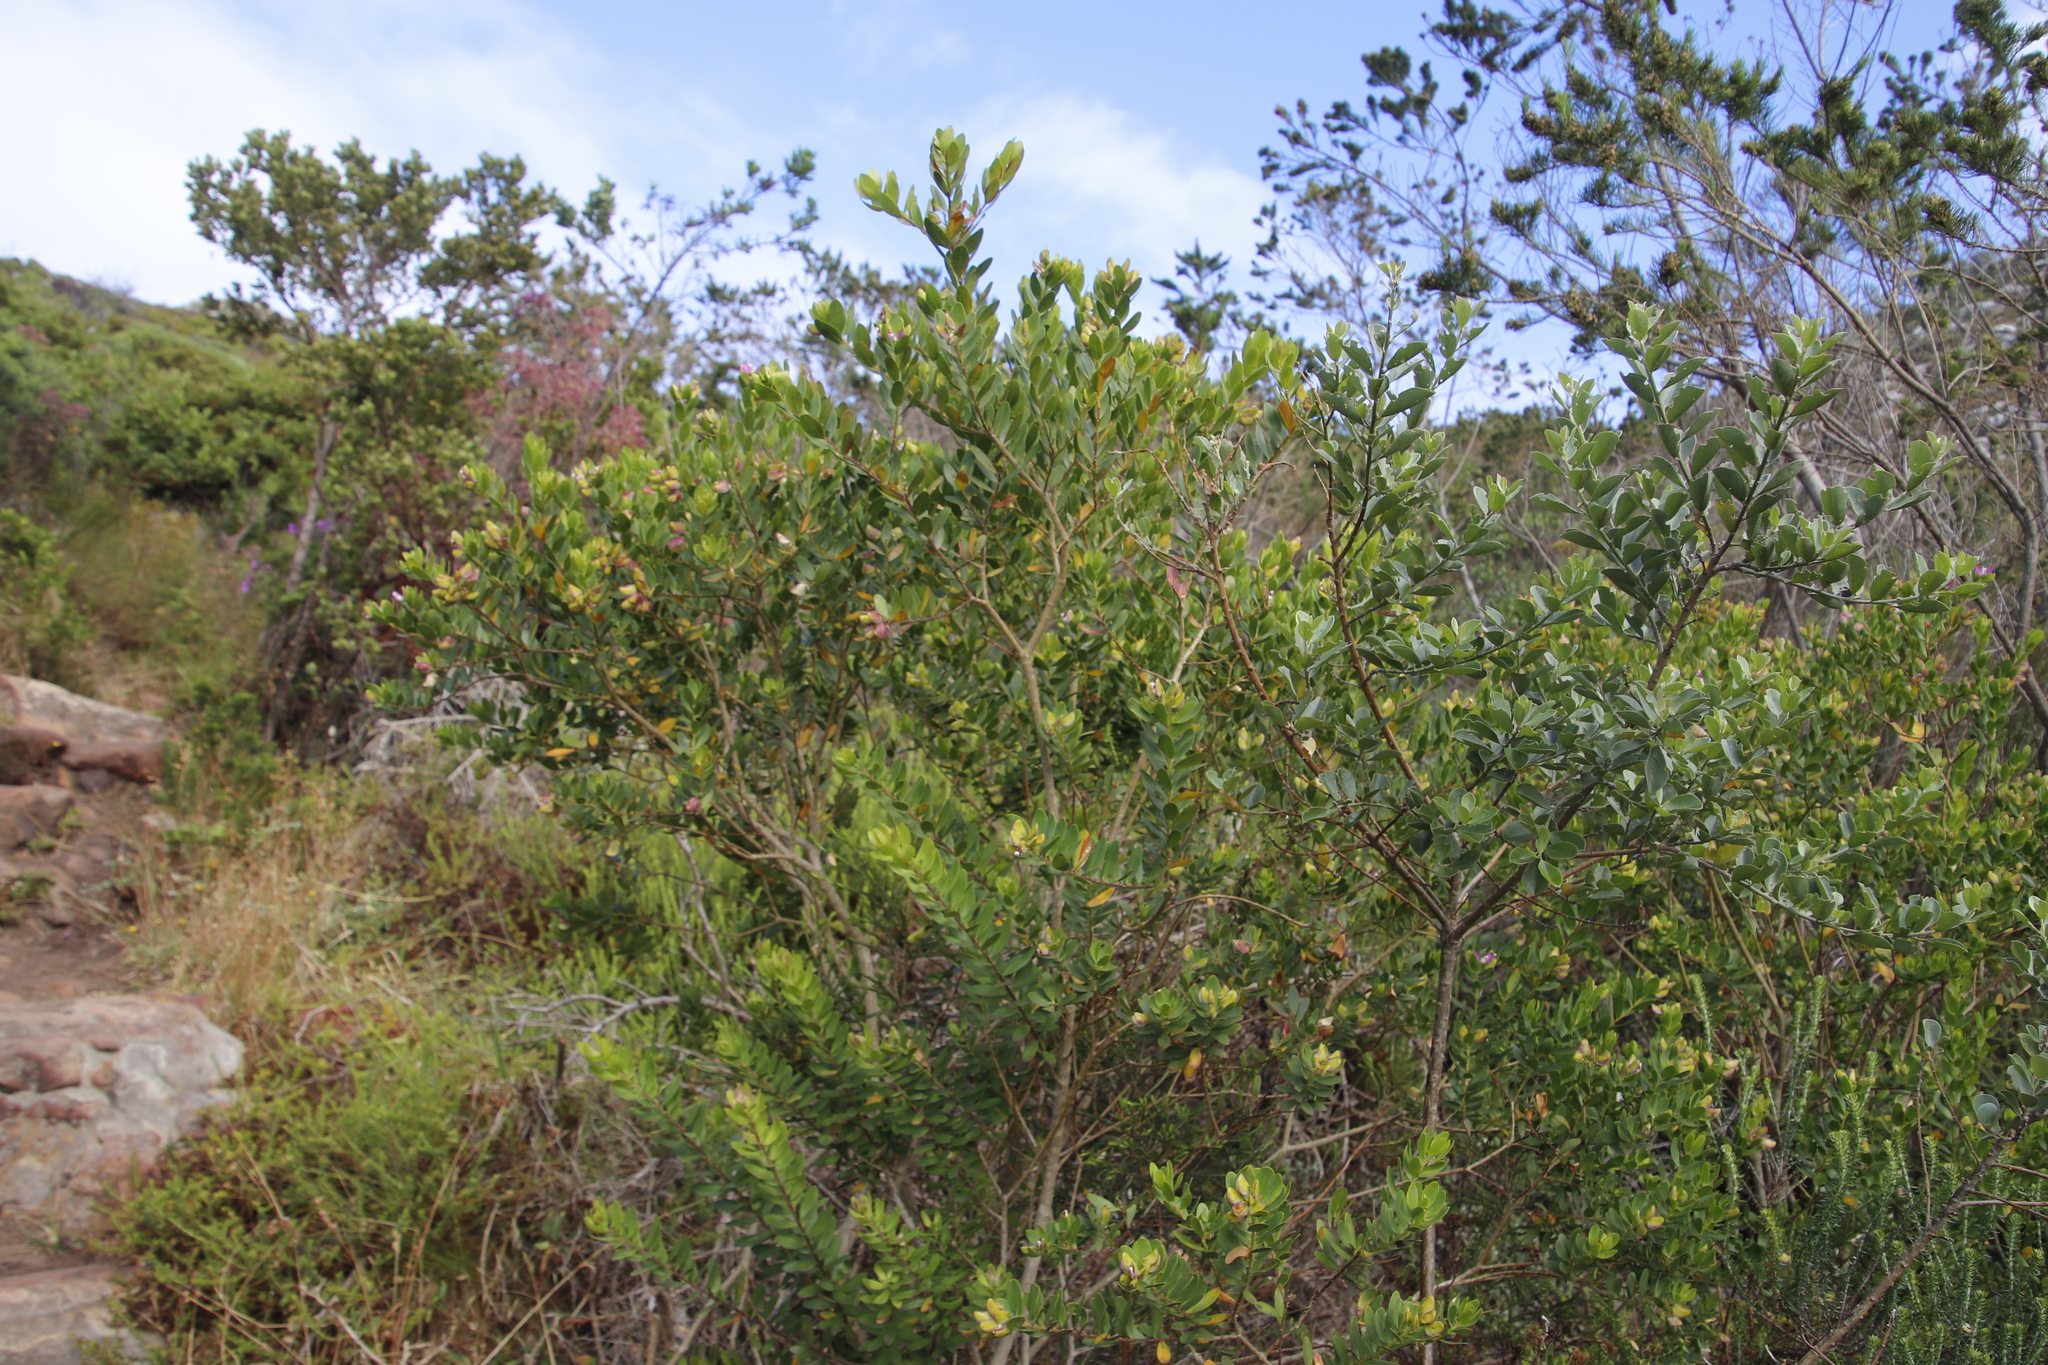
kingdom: Plantae
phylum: Tracheophyta
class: Magnoliopsida
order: Fabales
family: Polygalaceae
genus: Polygala
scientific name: Polygala myrtifolia
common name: Myrtle-leaf milkwort
